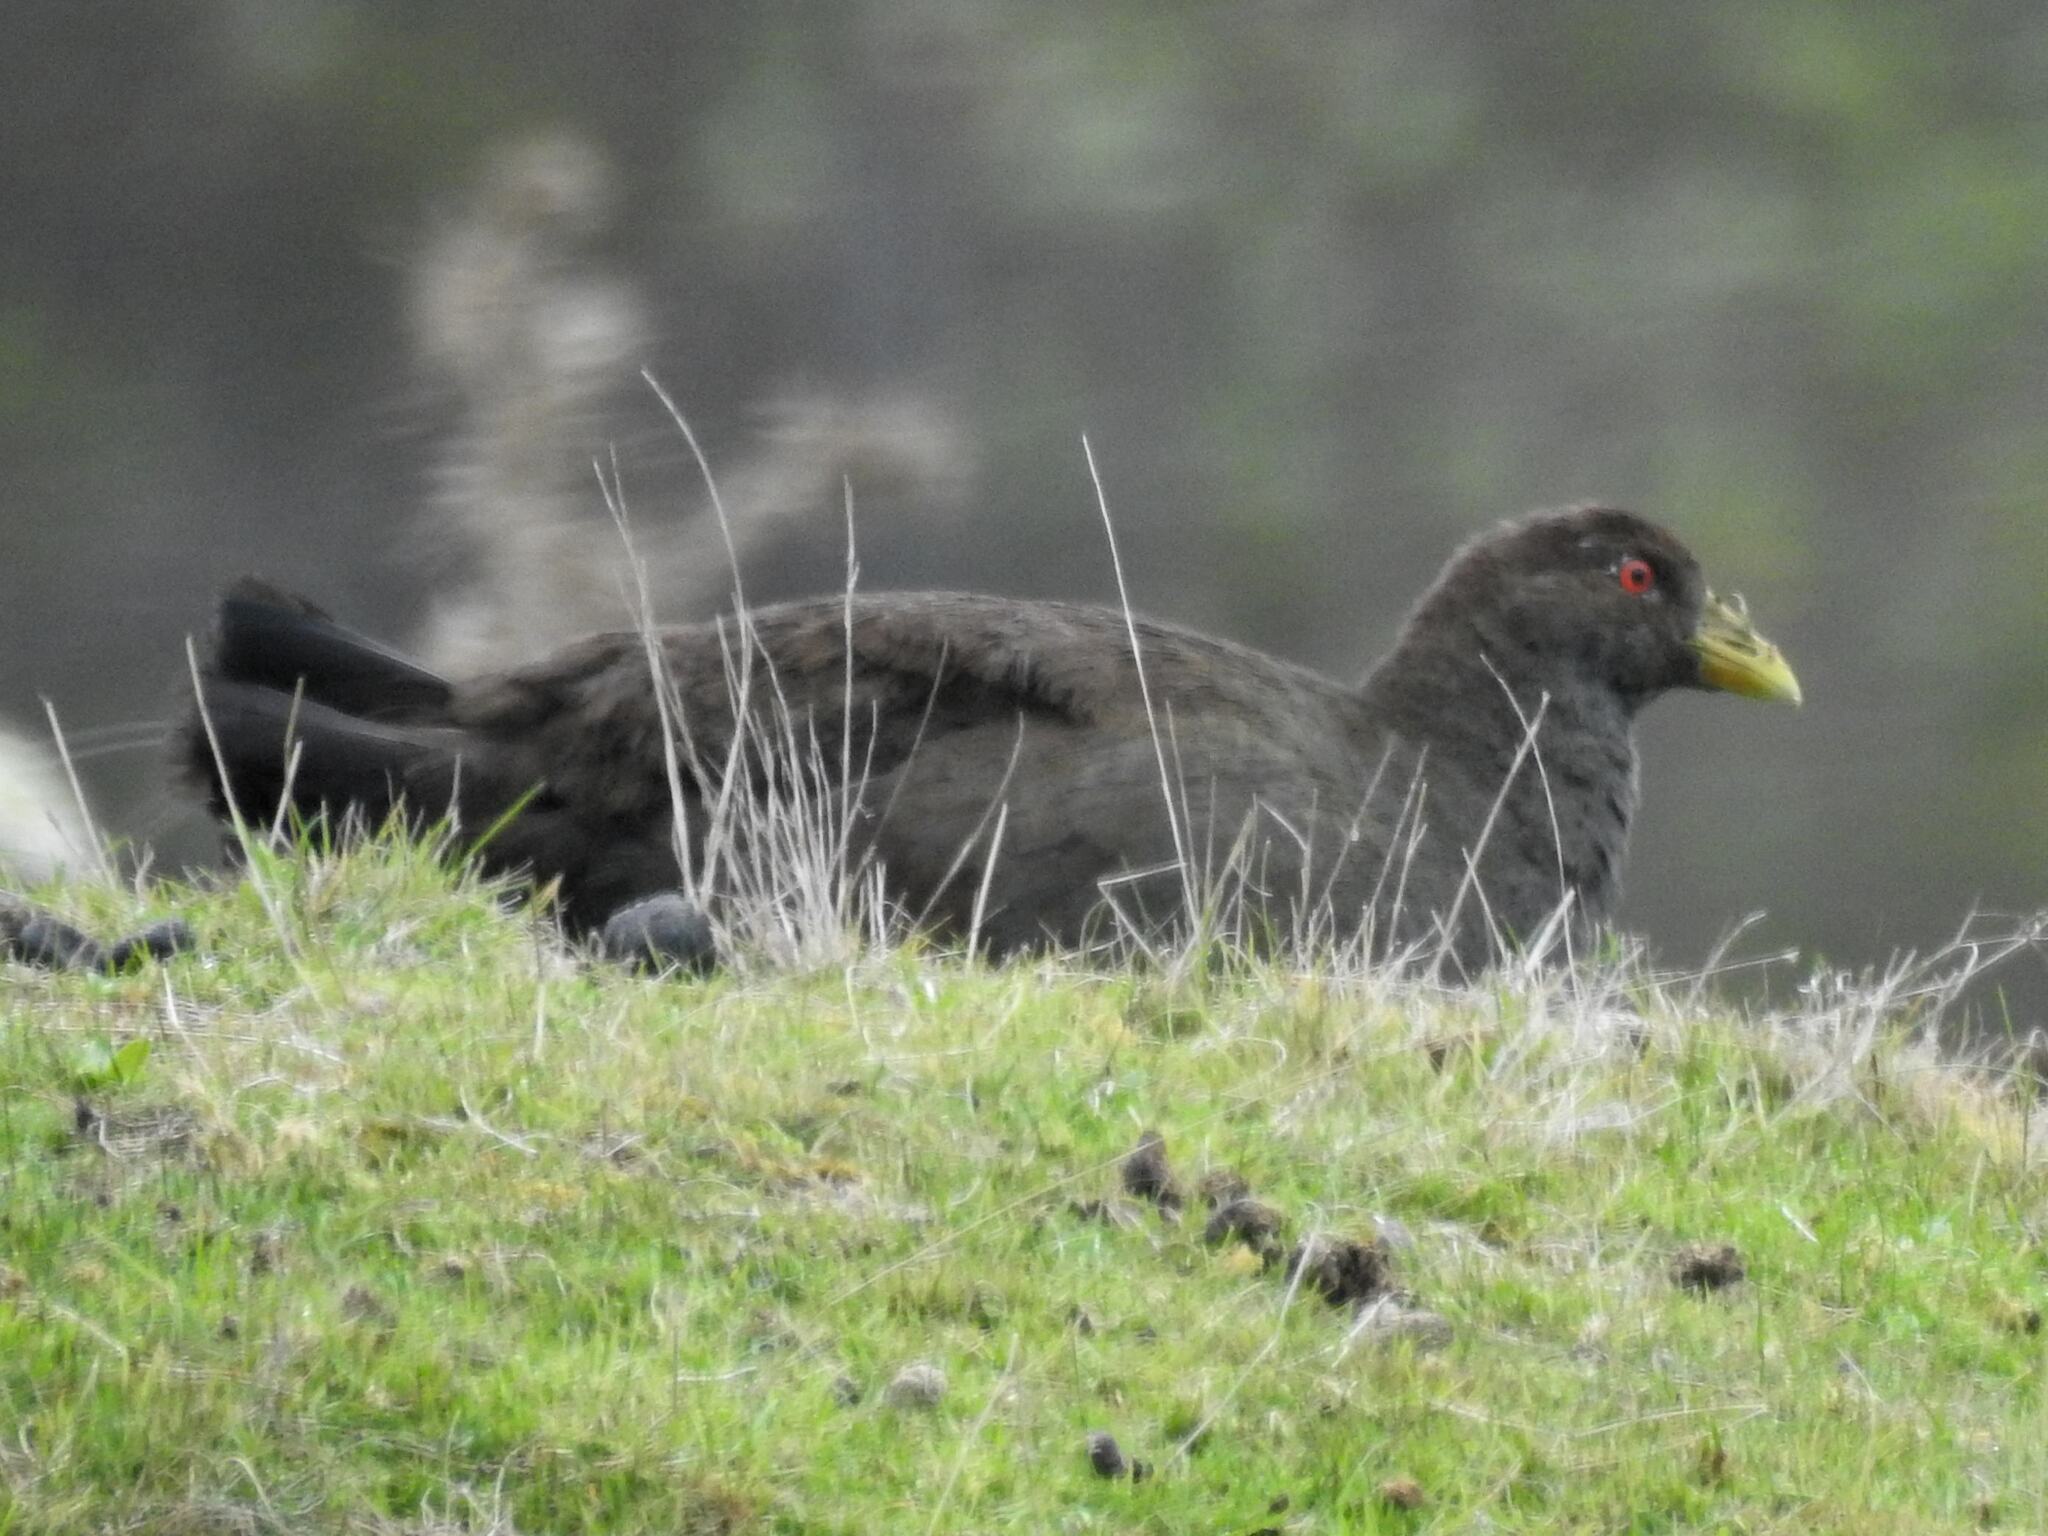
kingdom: Animalia
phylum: Chordata
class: Aves
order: Gruiformes
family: Rallidae
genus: Gallinula
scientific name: Gallinula mortierii
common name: Tasmanian nativehen
